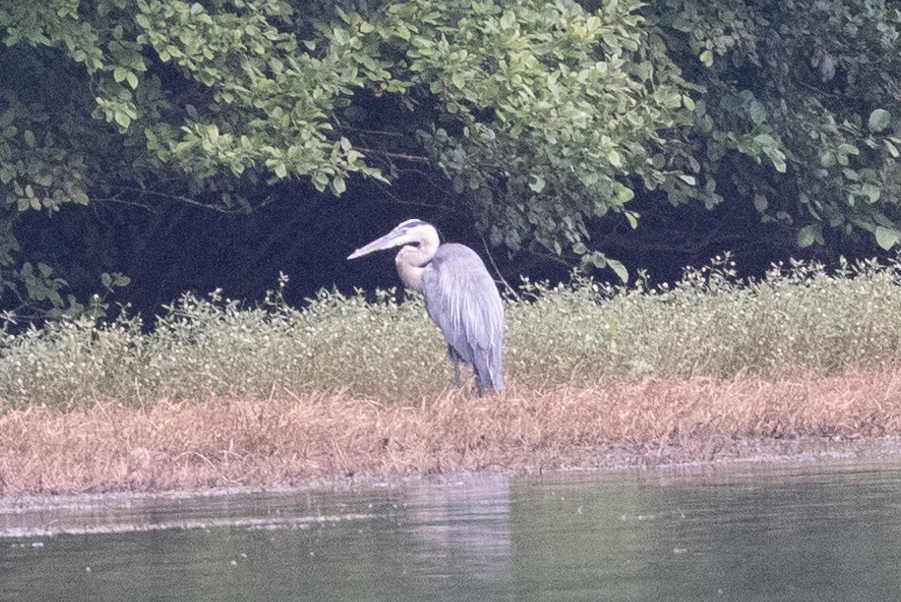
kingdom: Animalia
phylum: Chordata
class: Aves
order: Pelecaniformes
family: Ardeidae
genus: Ardea
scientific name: Ardea herodias
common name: Great blue heron
